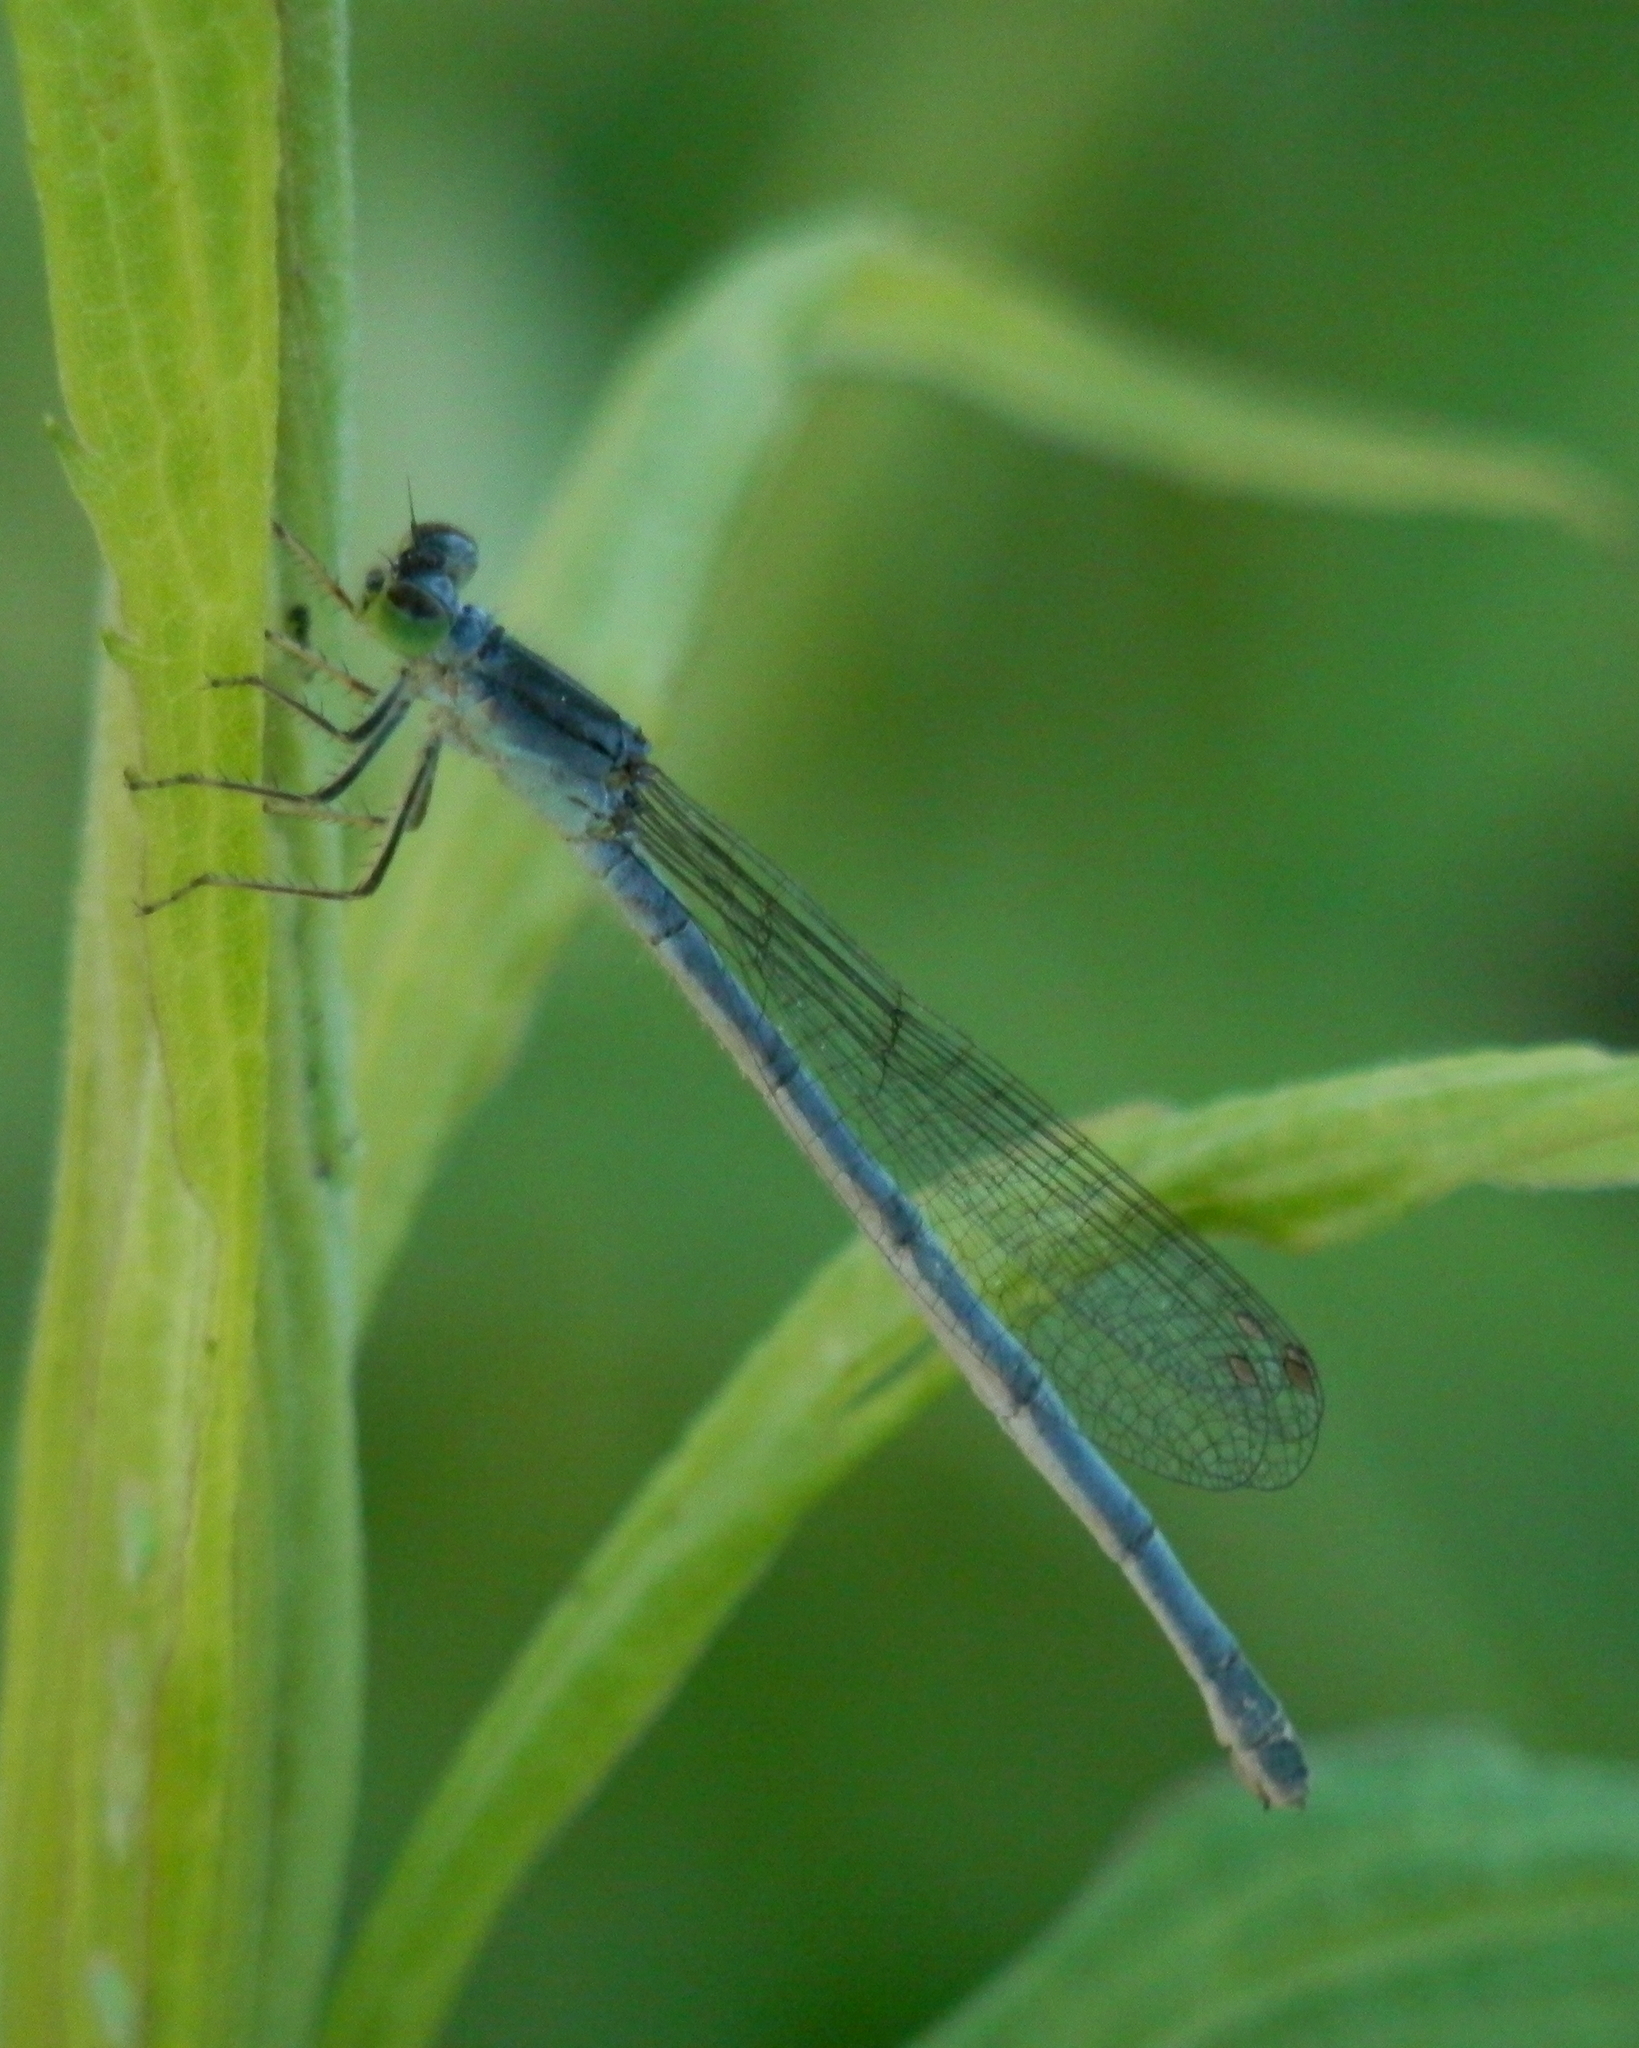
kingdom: Animalia
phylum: Arthropoda
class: Insecta
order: Odonata
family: Coenagrionidae
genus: Ischnura
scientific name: Ischnura verticalis
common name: Eastern forktail
